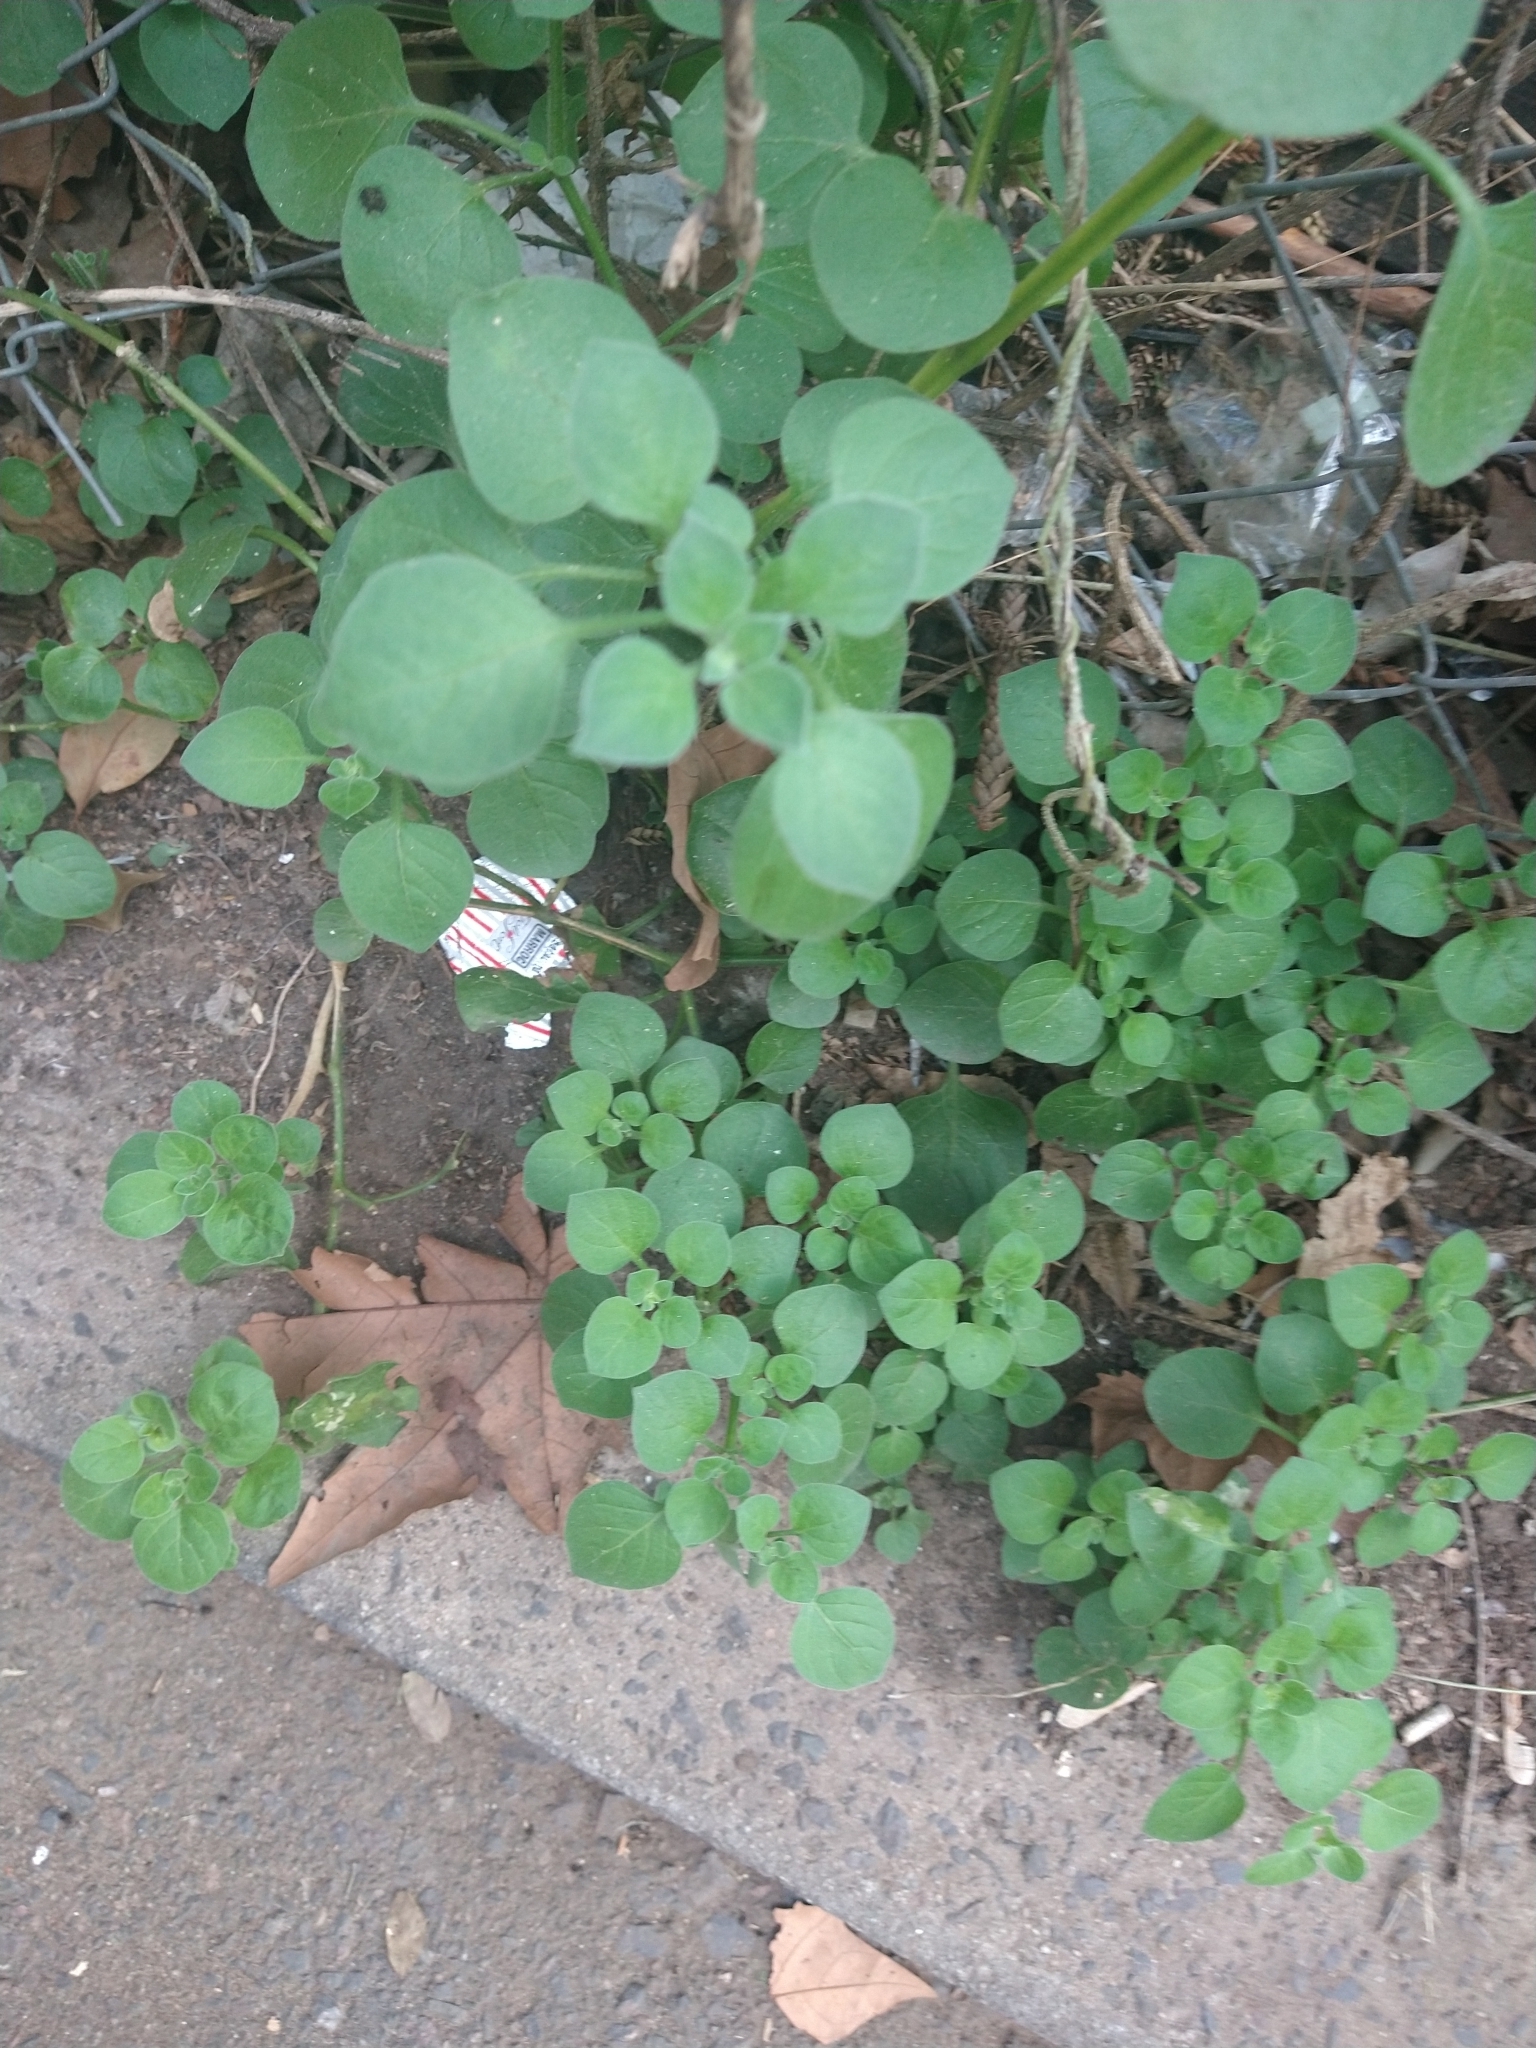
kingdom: Plantae
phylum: Tracheophyta
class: Magnoliopsida
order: Solanales
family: Solanaceae
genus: Salpichroa
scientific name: Salpichroa origanifolia
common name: Lily-of-the-valley-vine
